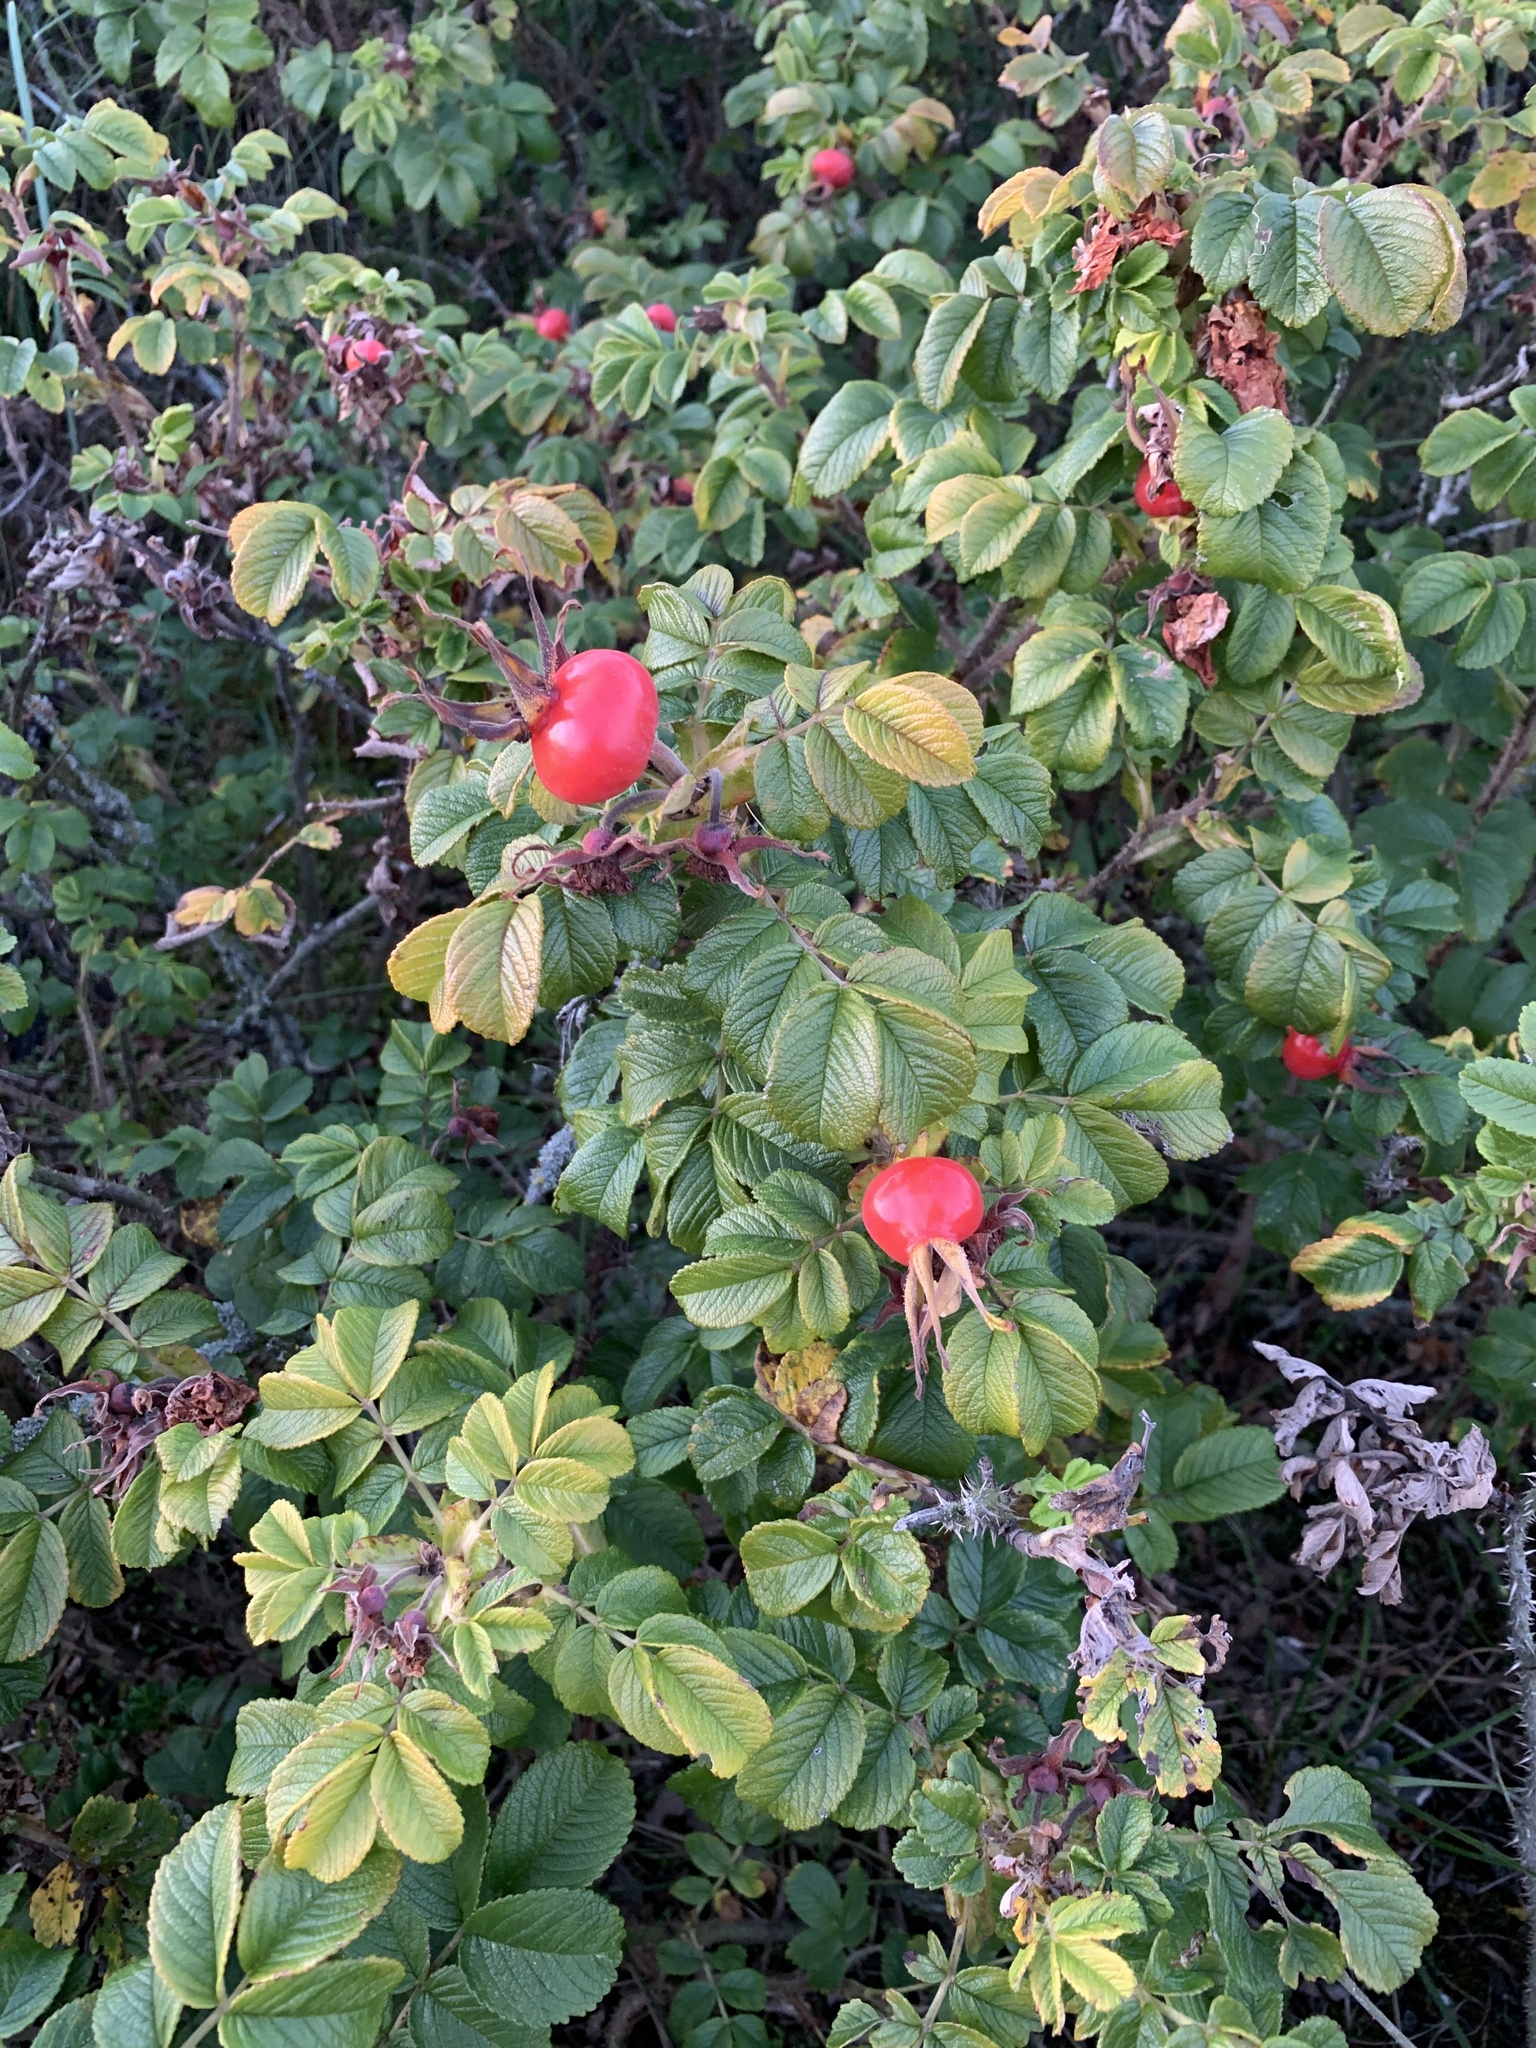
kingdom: Plantae
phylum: Tracheophyta
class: Magnoliopsida
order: Rosales
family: Rosaceae
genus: Rosa
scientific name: Rosa rugosa
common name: Japanese rose
